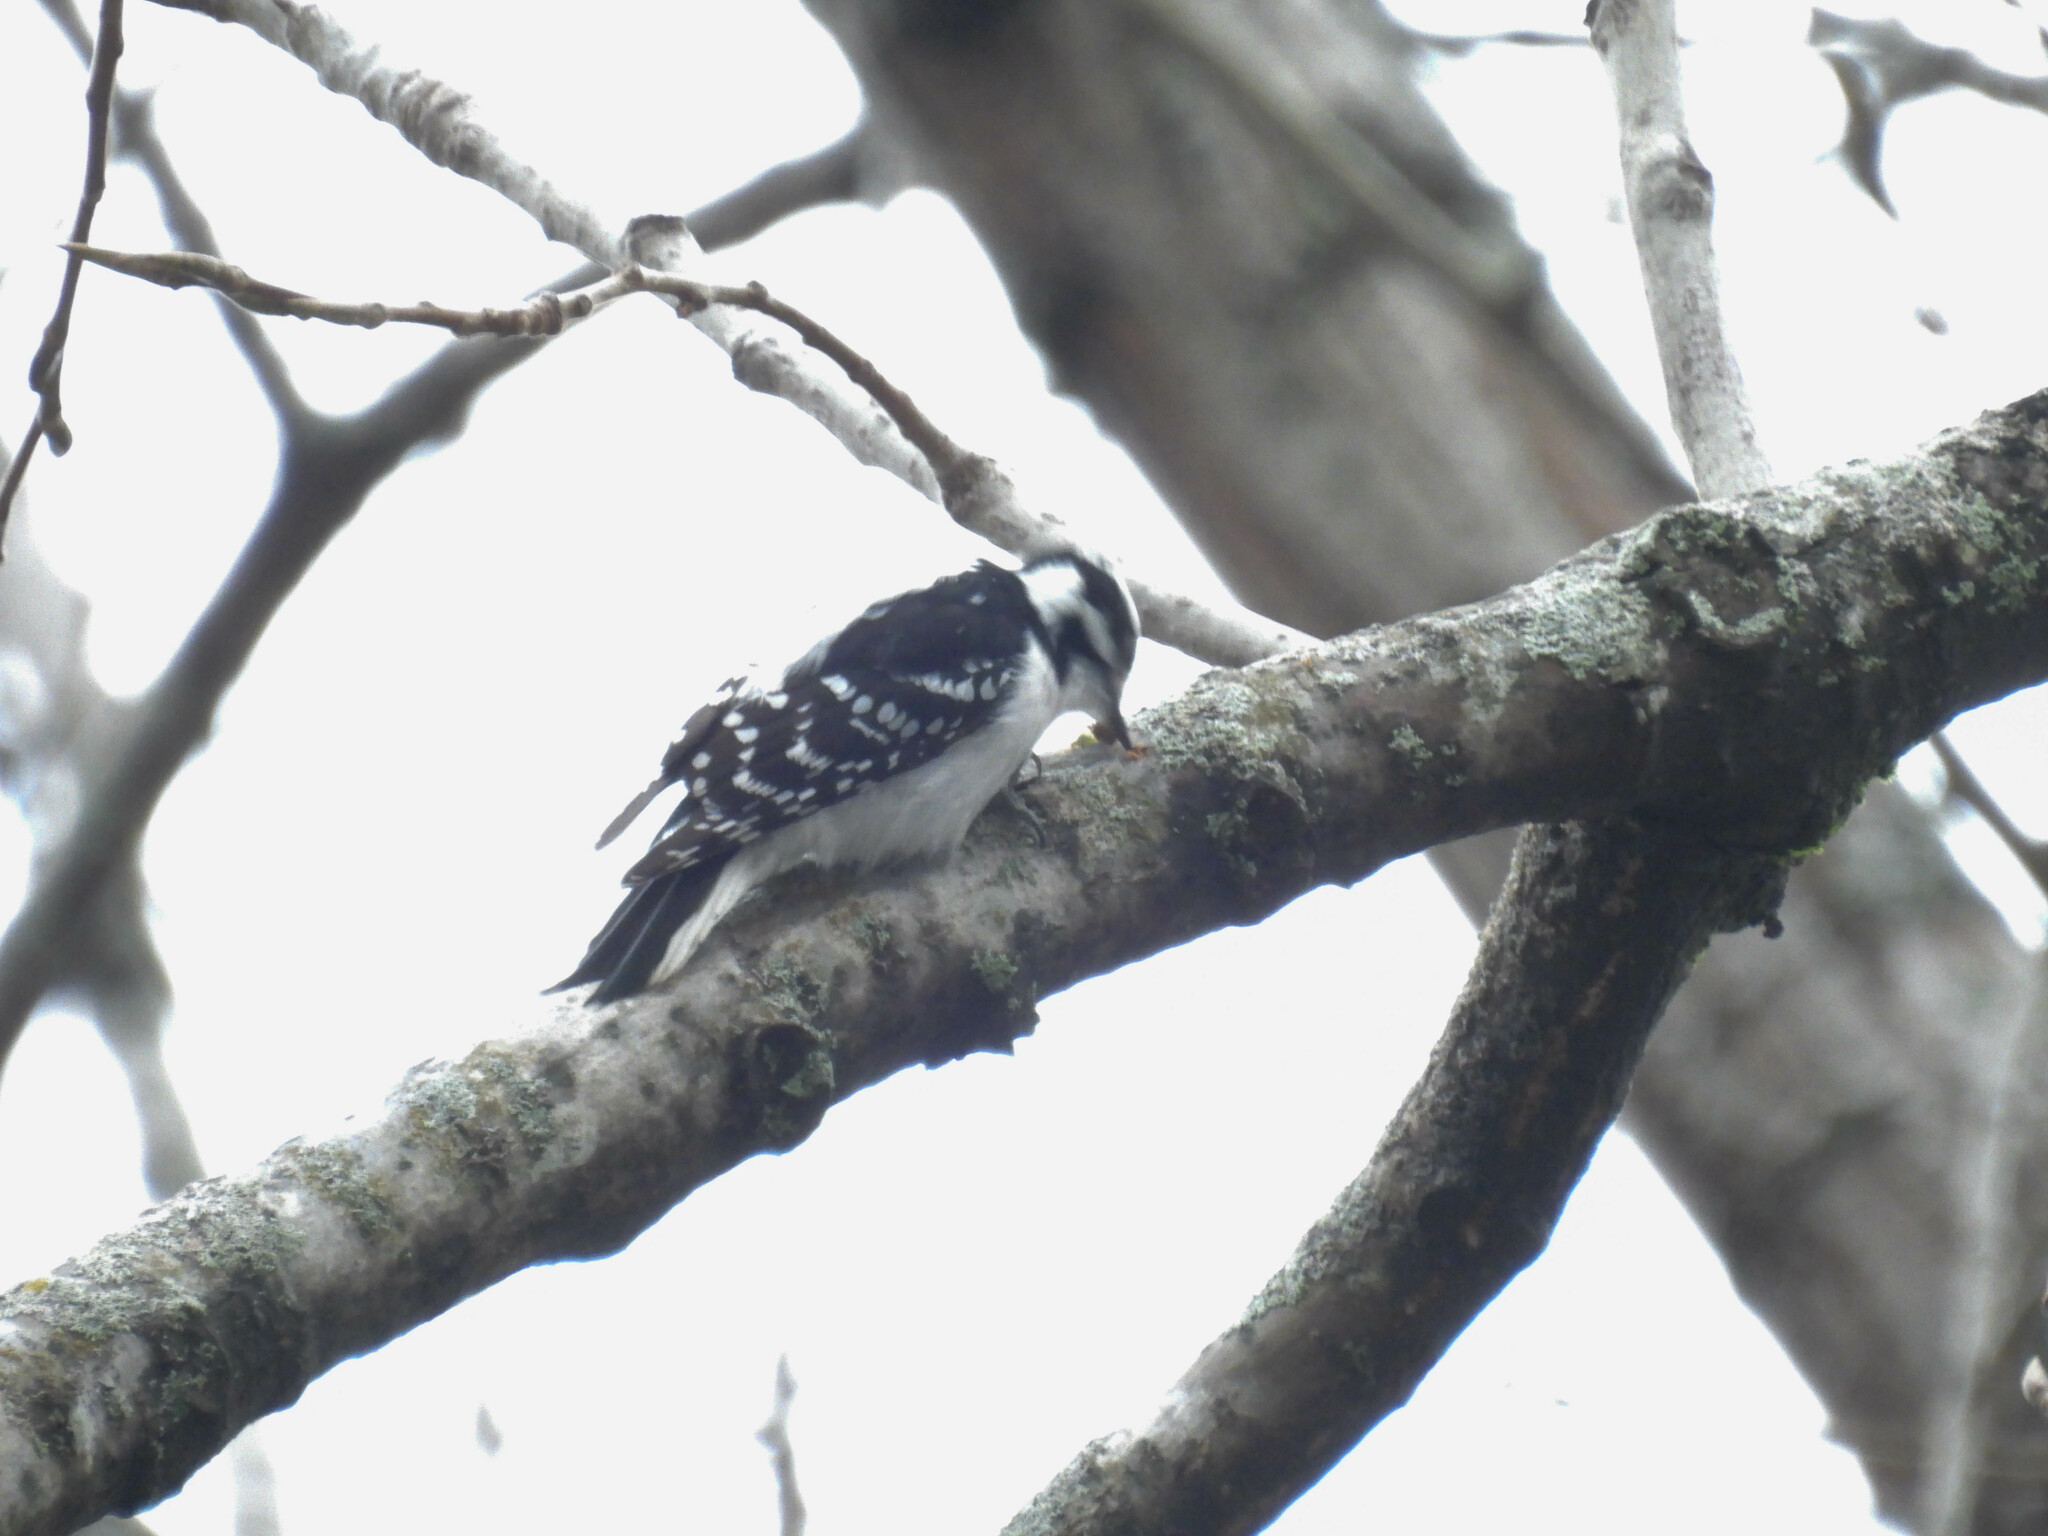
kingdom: Animalia
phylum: Chordata
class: Aves
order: Piciformes
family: Picidae
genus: Dryobates
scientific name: Dryobates pubescens
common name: Downy woodpecker
